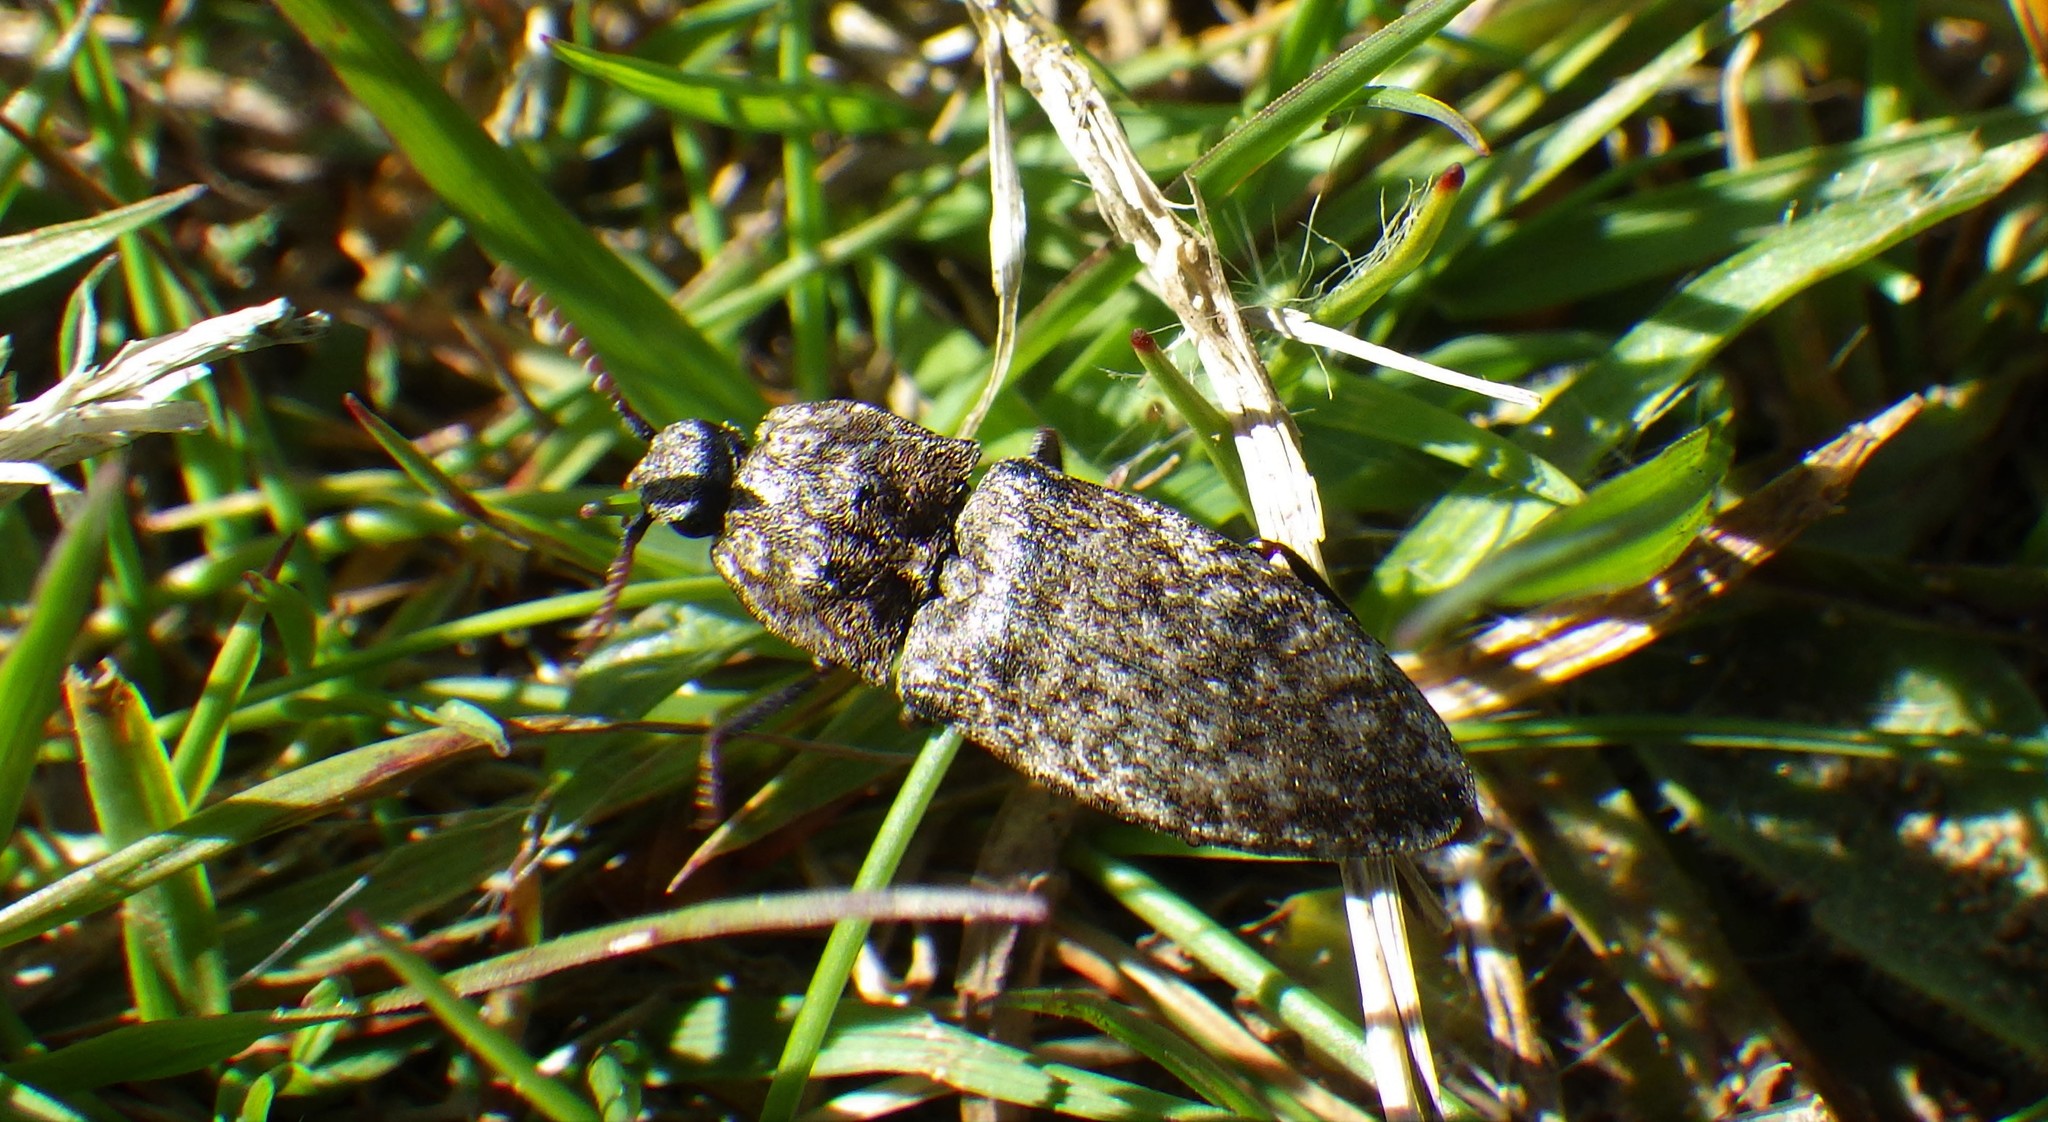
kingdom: Animalia
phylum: Arthropoda
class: Insecta
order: Coleoptera
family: Elateridae
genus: Agrypnus
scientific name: Agrypnus murinus
